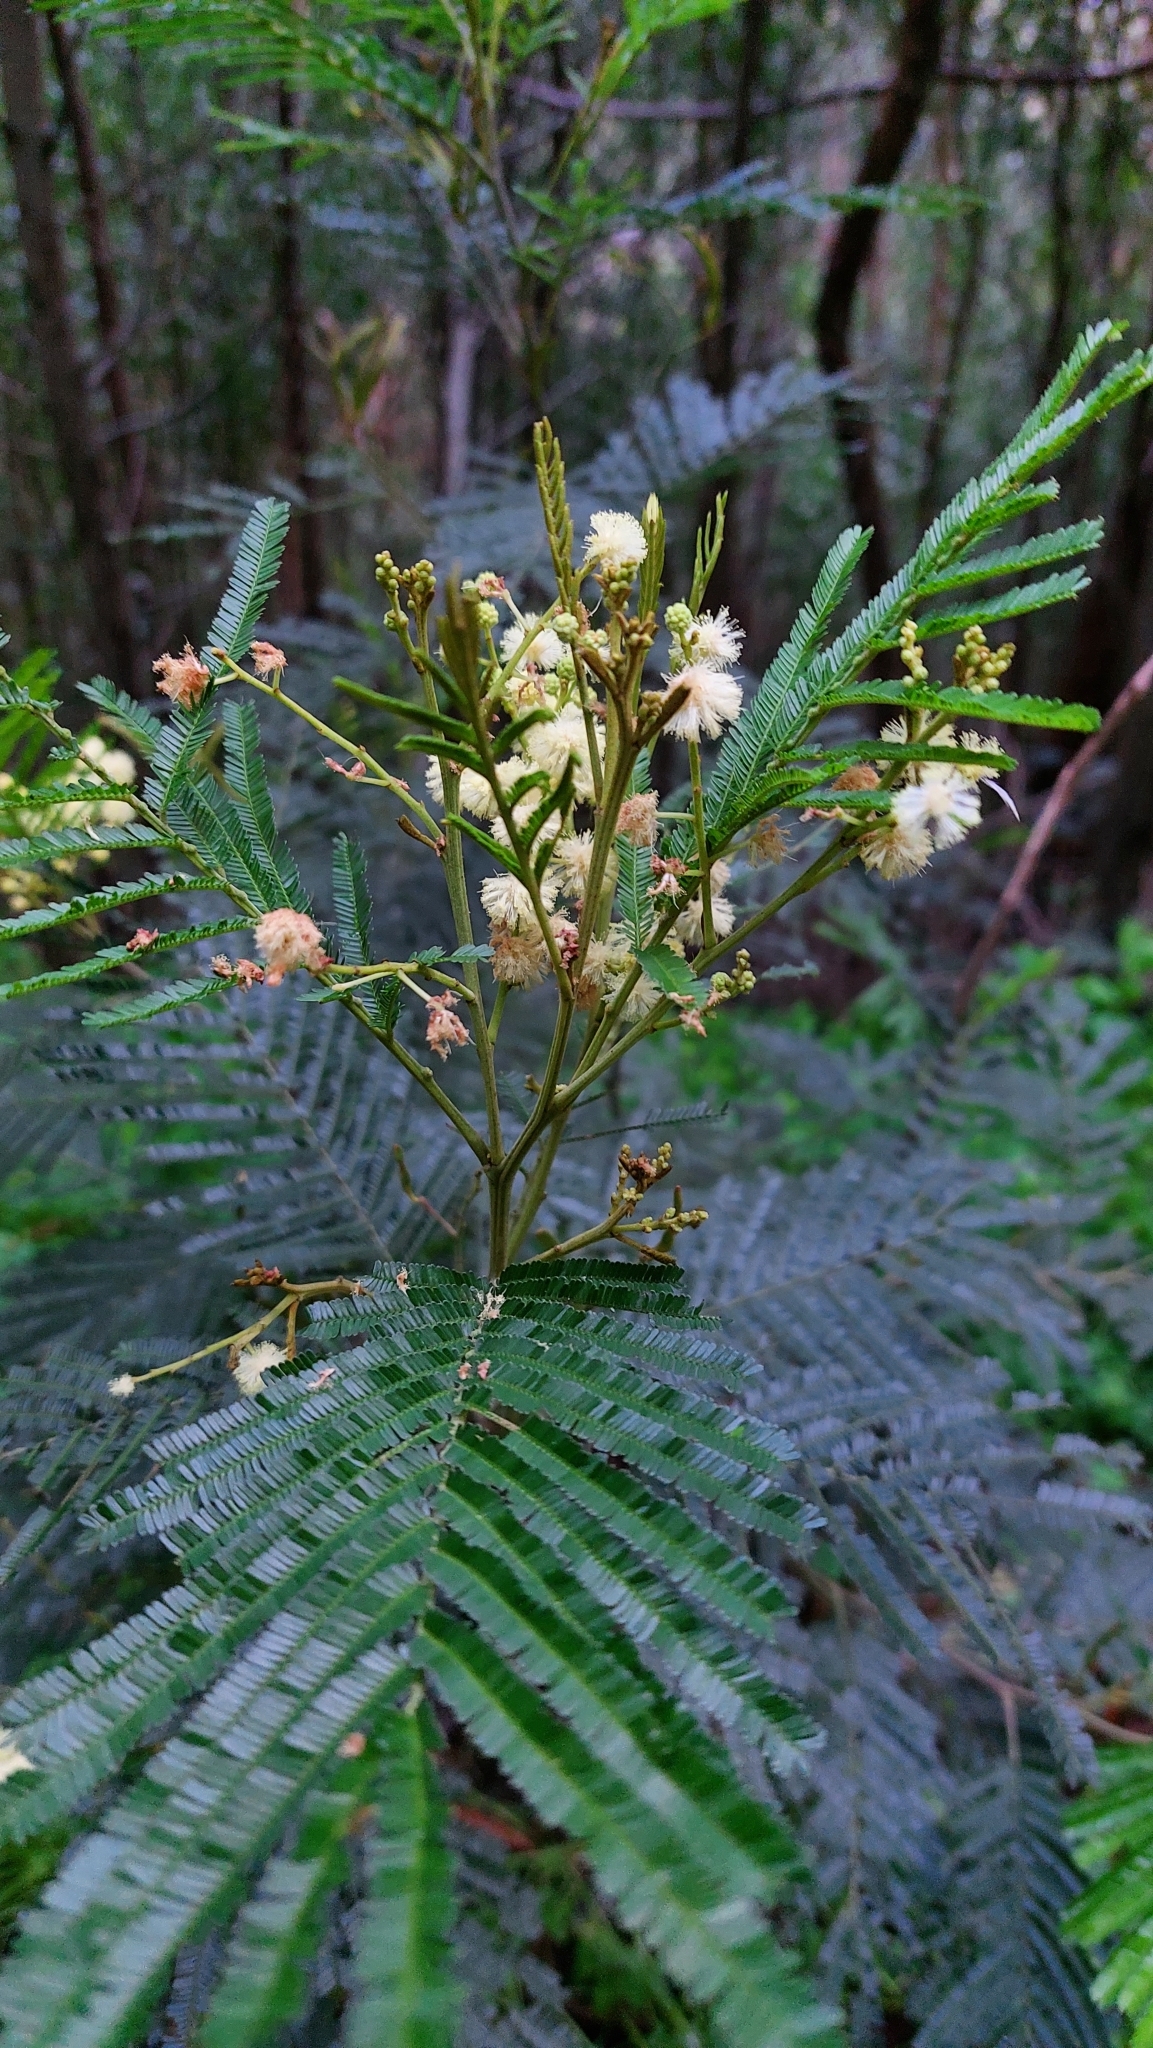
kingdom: Plantae
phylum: Tracheophyta
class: Magnoliopsida
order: Fabales
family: Fabaceae
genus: Acacia
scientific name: Acacia mearnsii
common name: Black wattle
